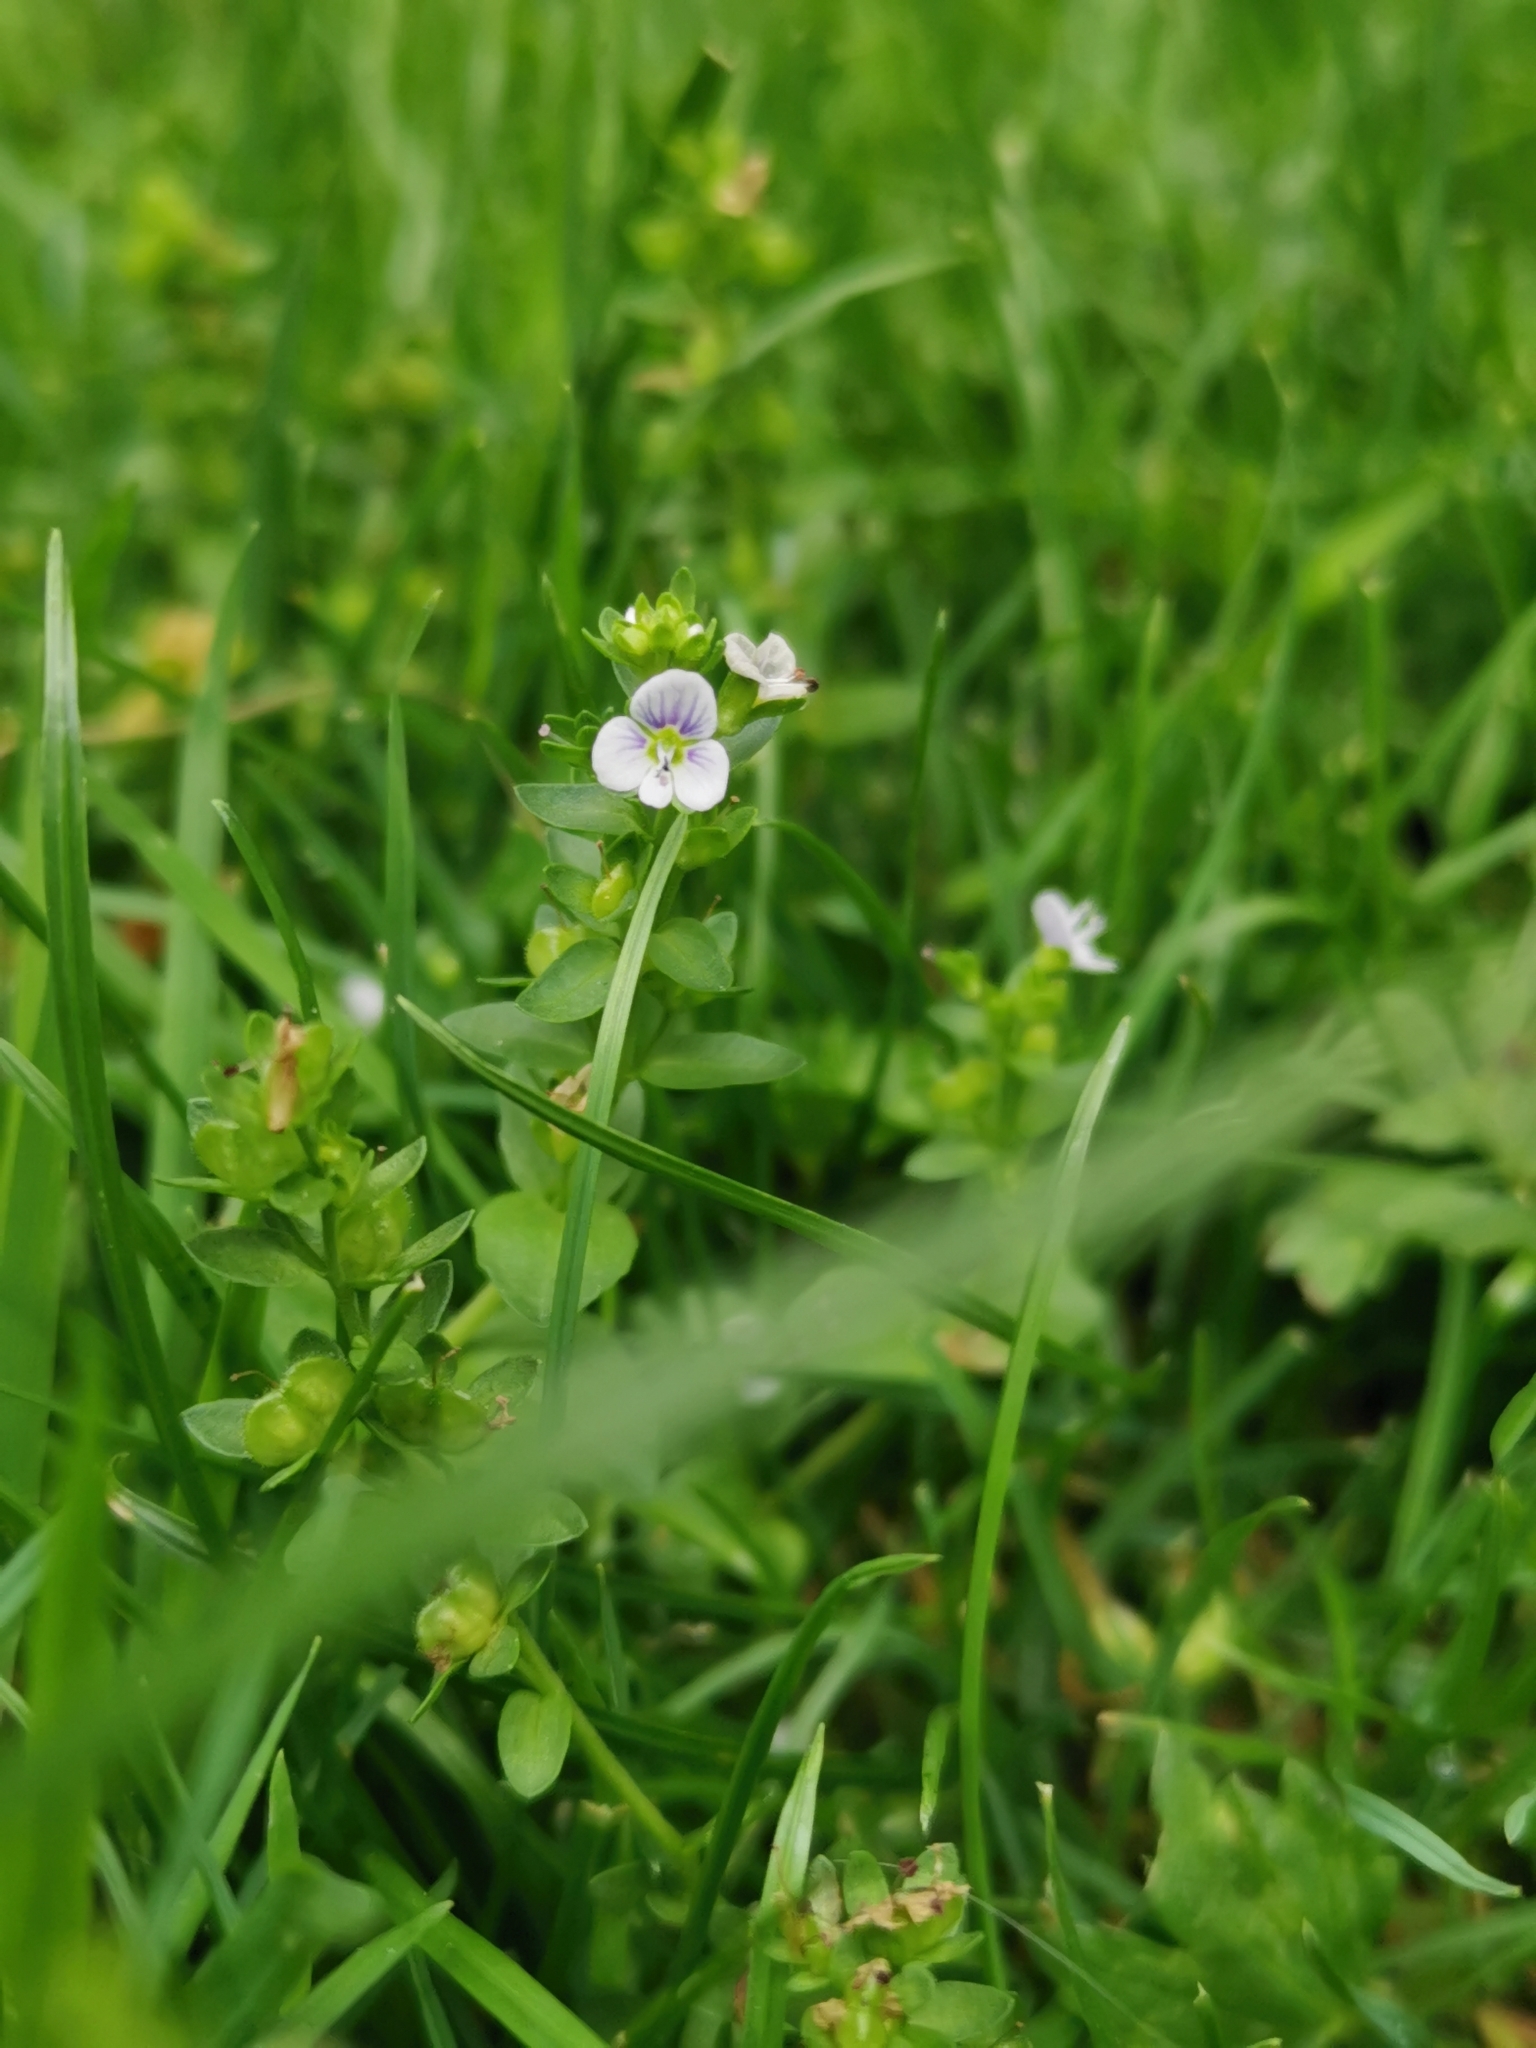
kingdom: Plantae
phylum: Tracheophyta
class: Magnoliopsida
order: Lamiales
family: Plantaginaceae
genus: Veronica
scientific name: Veronica serpyllifolia
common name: Thyme-leaved speedwell
